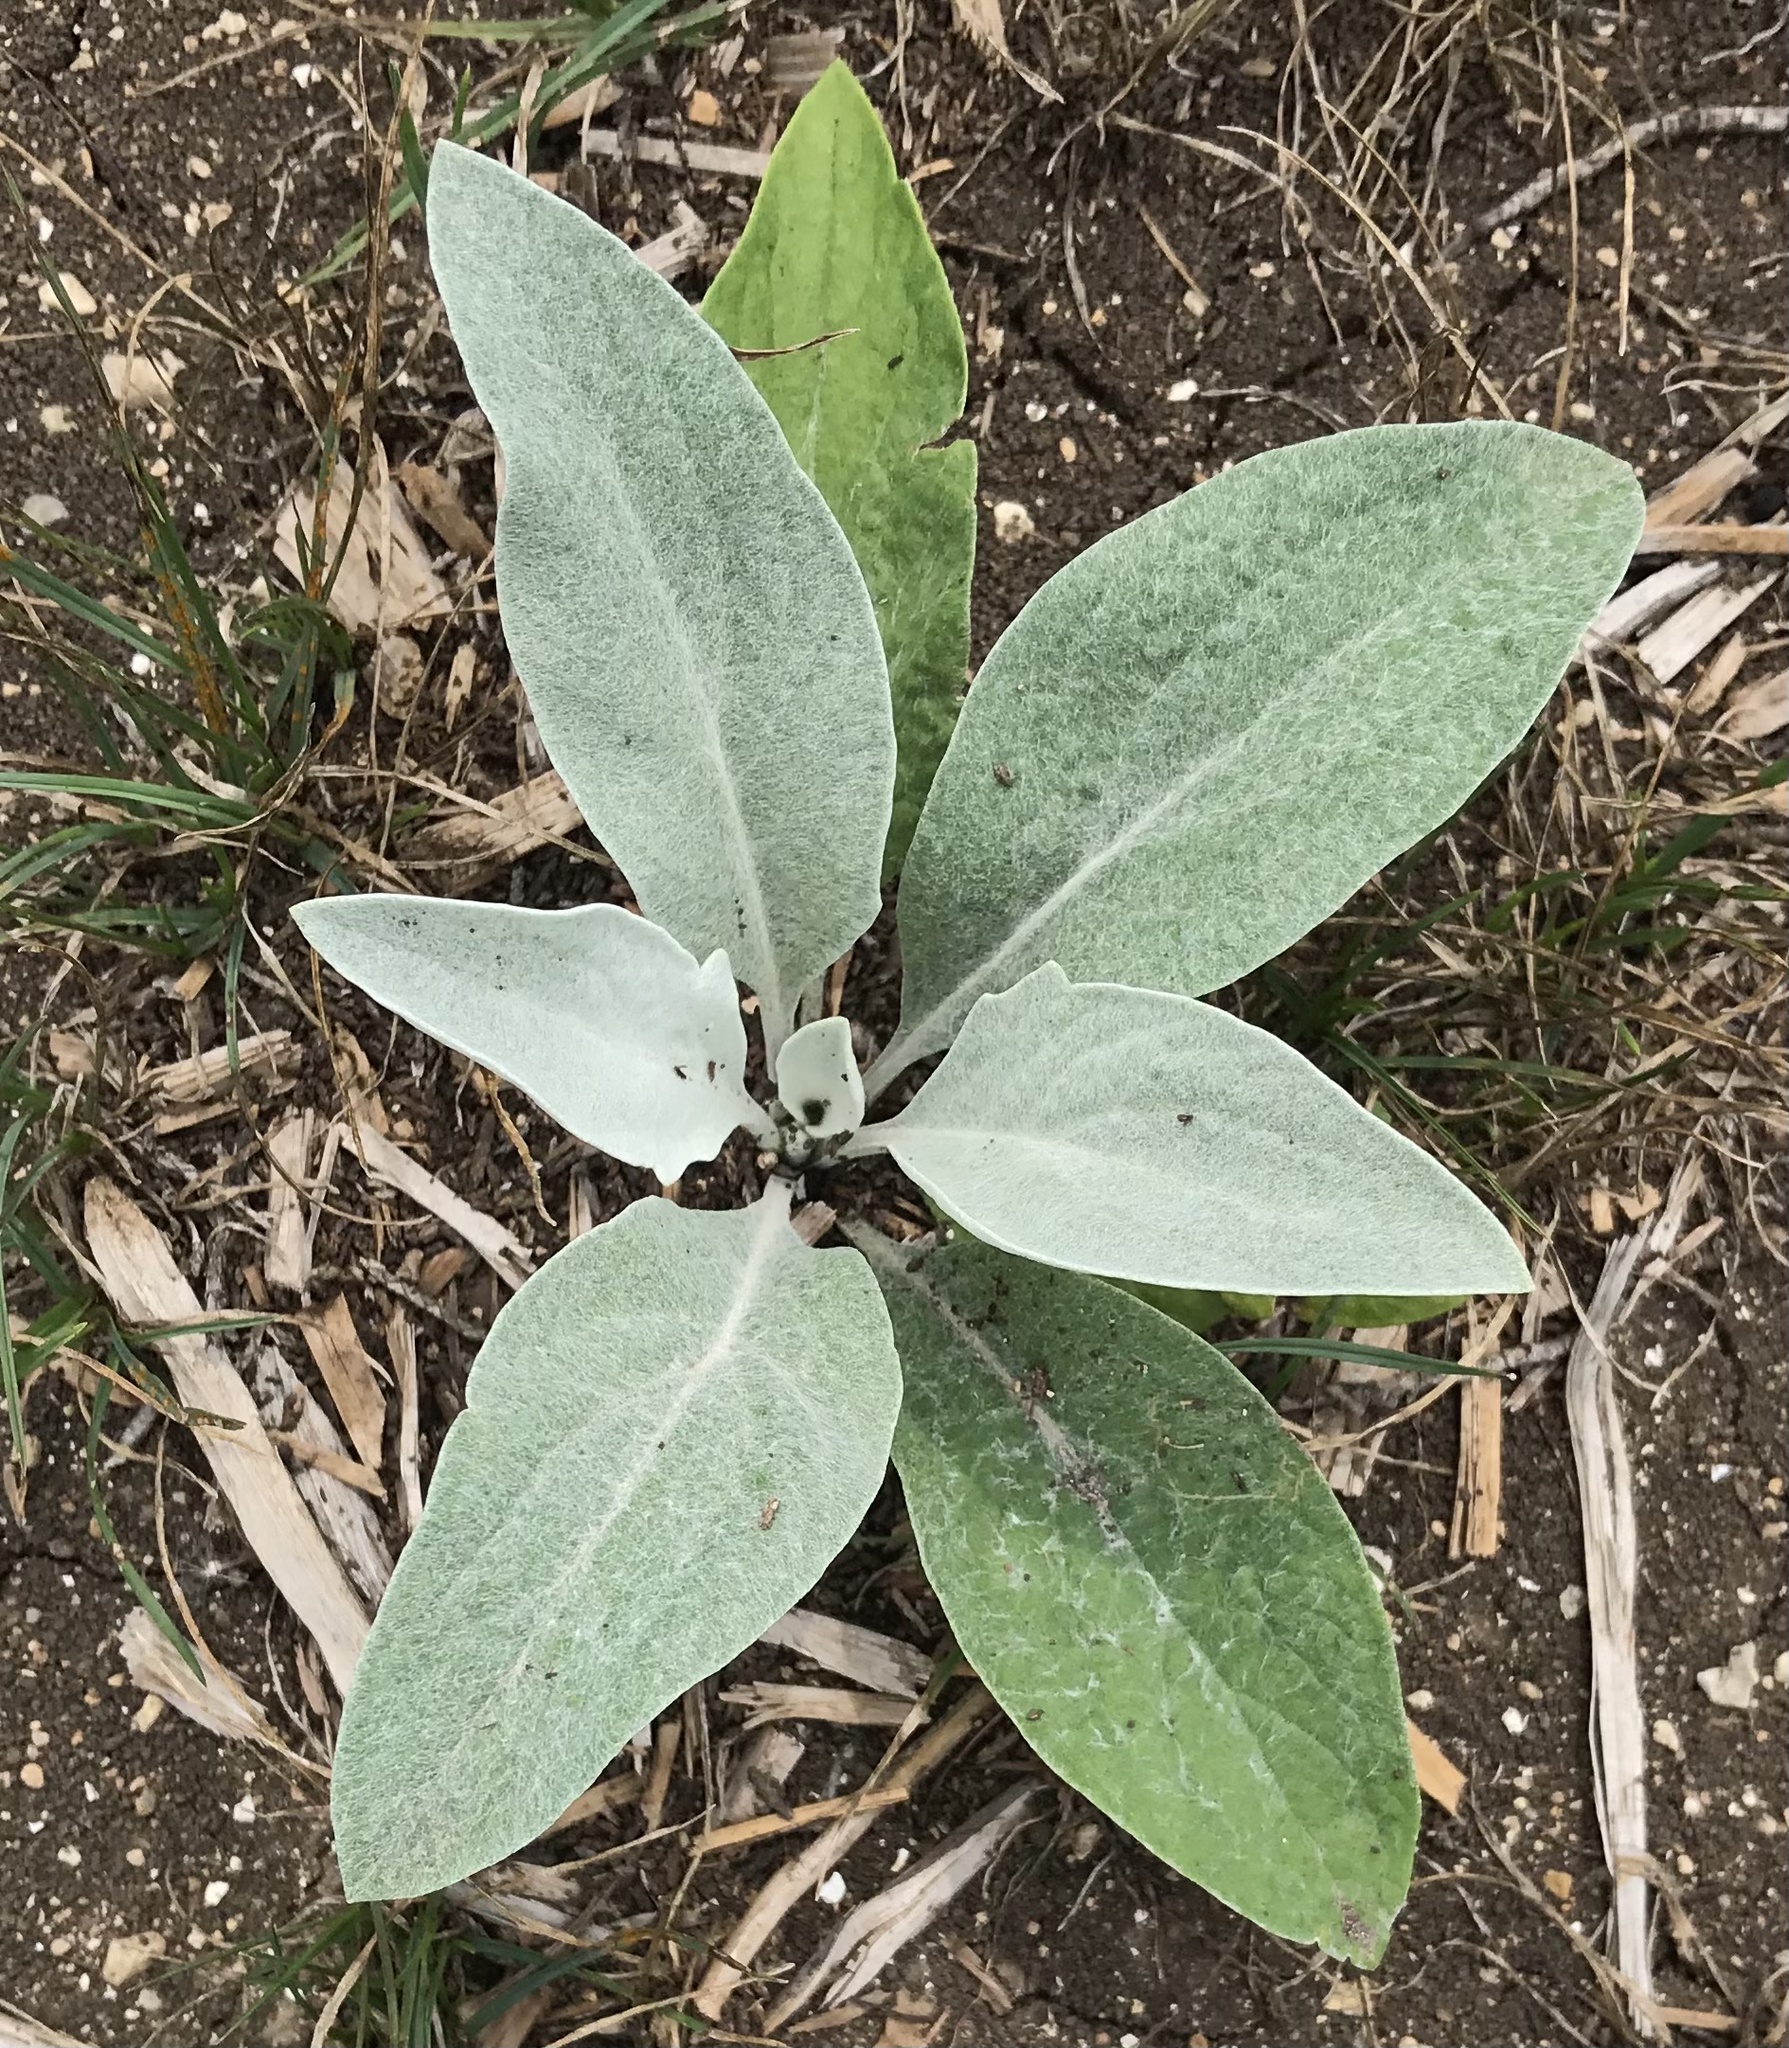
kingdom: Plantae
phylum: Tracheophyta
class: Magnoliopsida
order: Lamiales
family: Scrophulariaceae
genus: Verbascum
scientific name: Verbascum thapsus
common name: Common mullein
